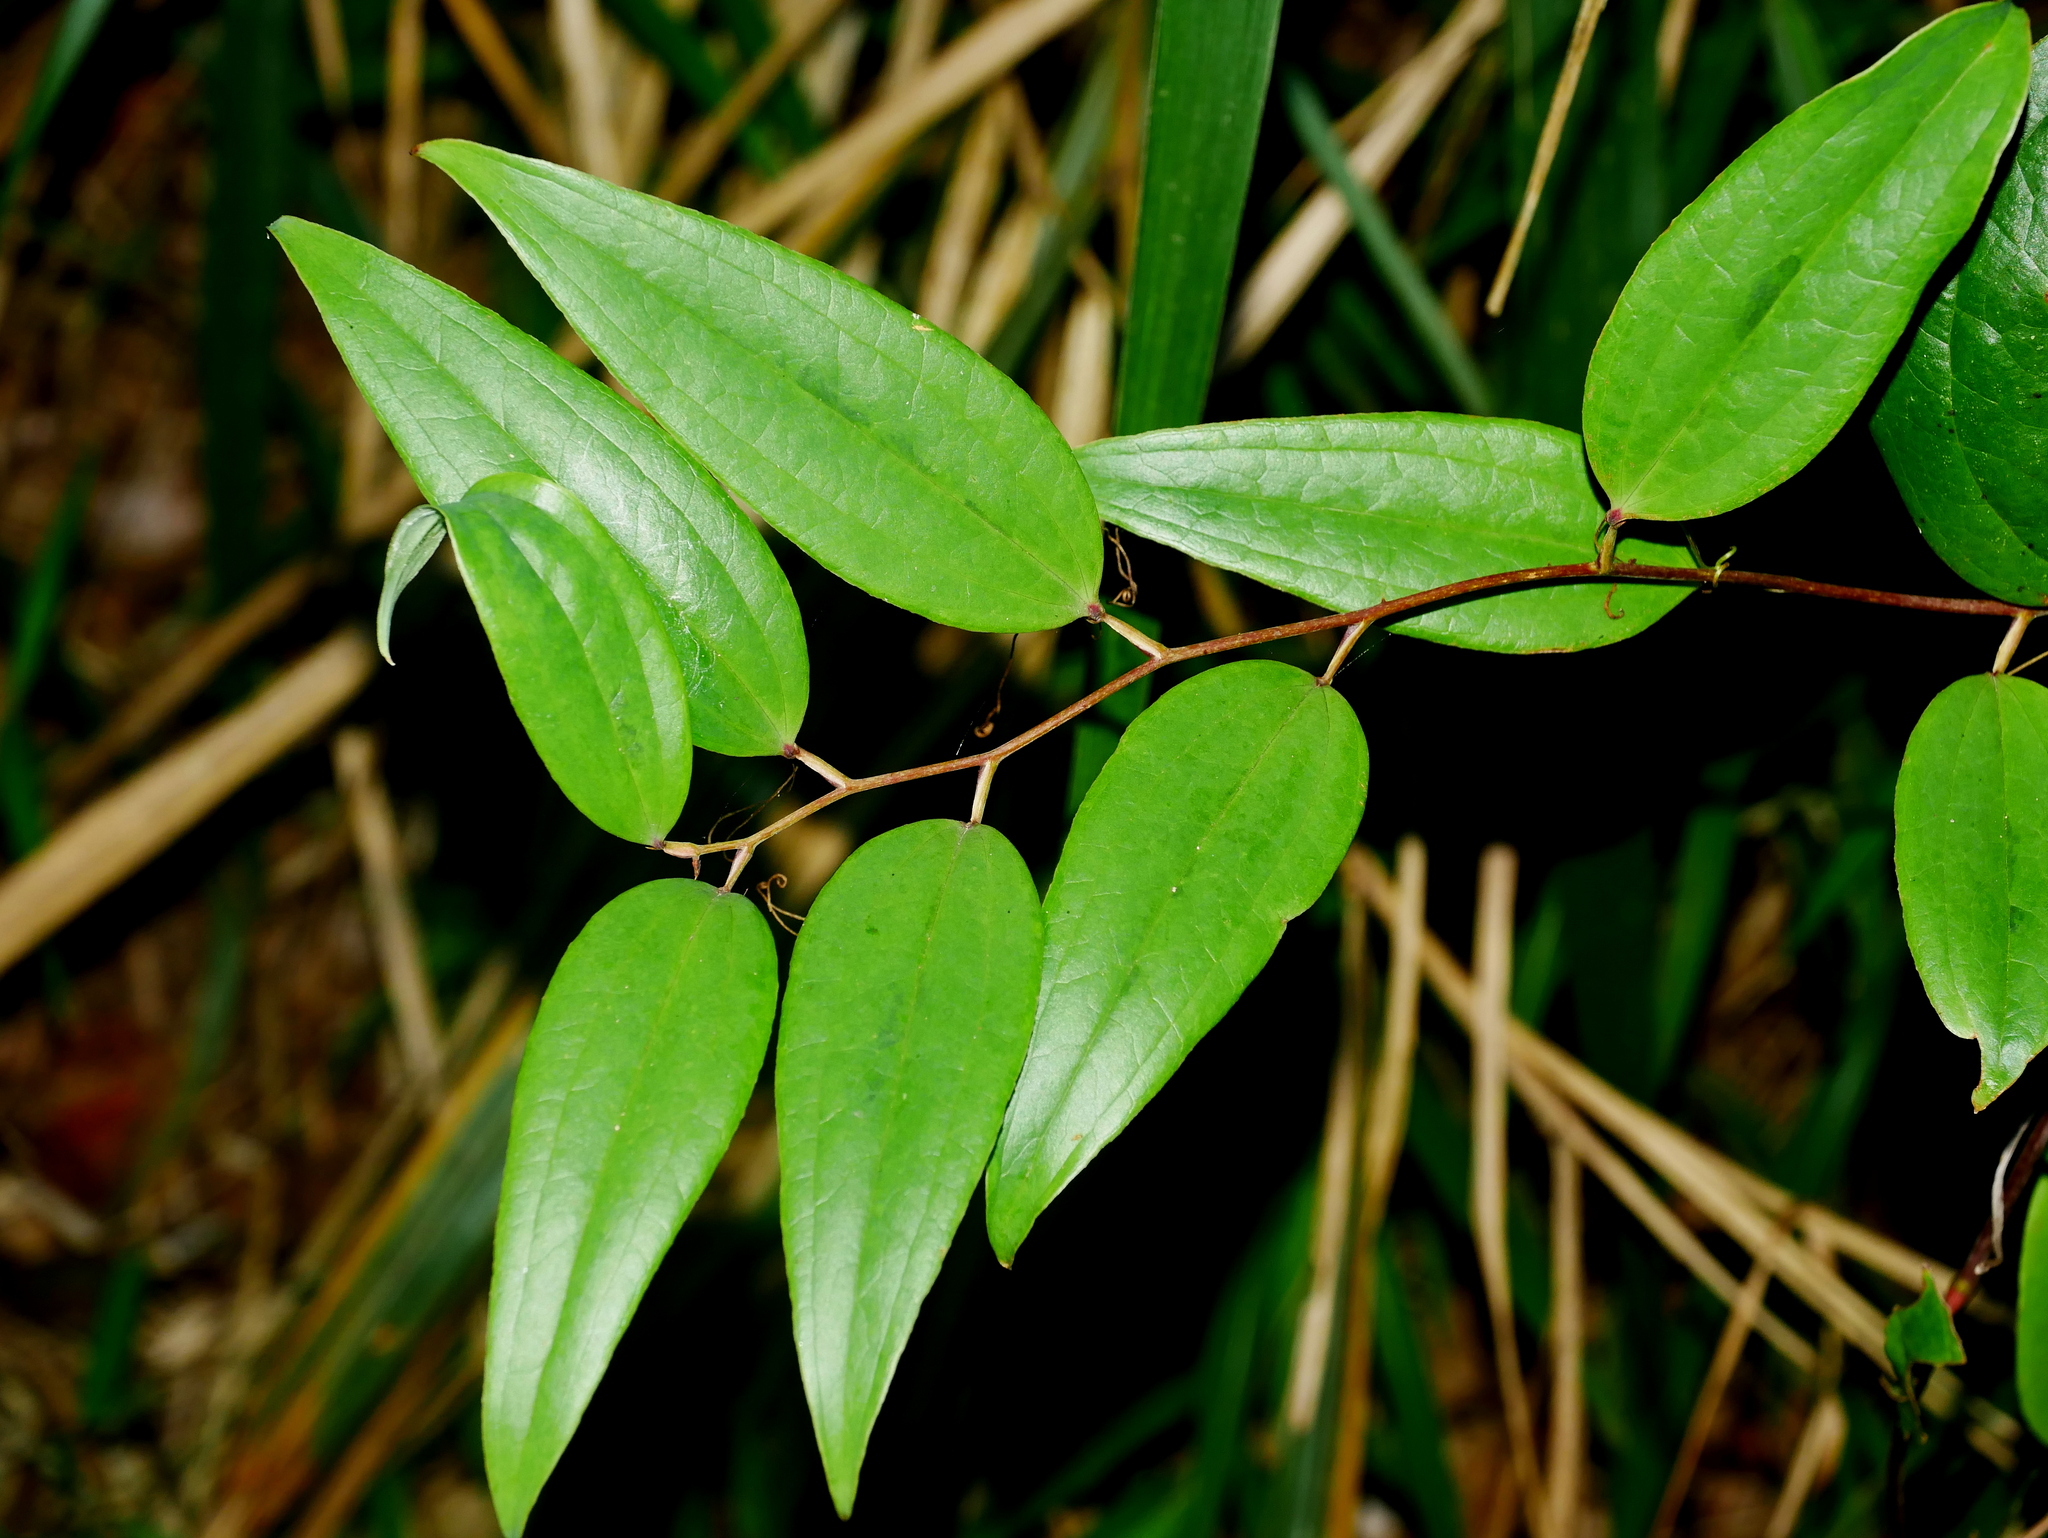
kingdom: Plantae
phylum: Tracheophyta
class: Liliopsida
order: Liliales
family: Smilacaceae
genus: Smilax
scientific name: Smilax nantoensis
